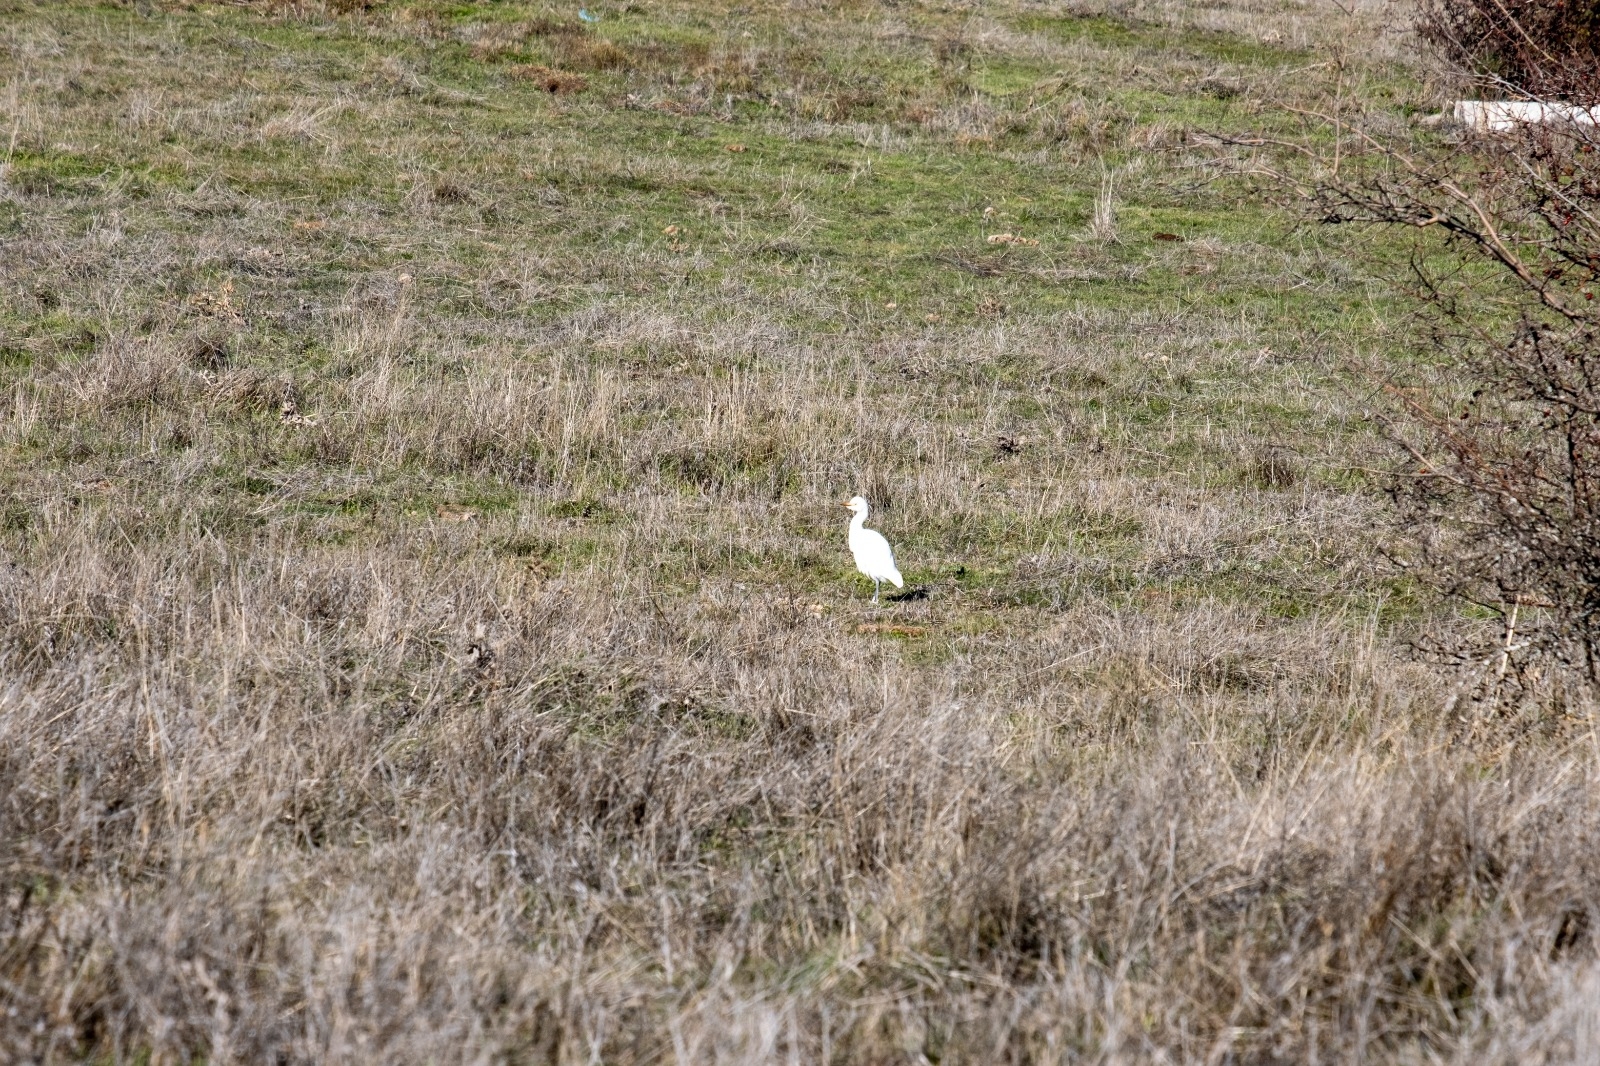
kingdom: Animalia
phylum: Chordata
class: Aves
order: Pelecaniformes
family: Ardeidae
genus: Bubulcus
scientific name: Bubulcus ibis
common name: Cattle egret
